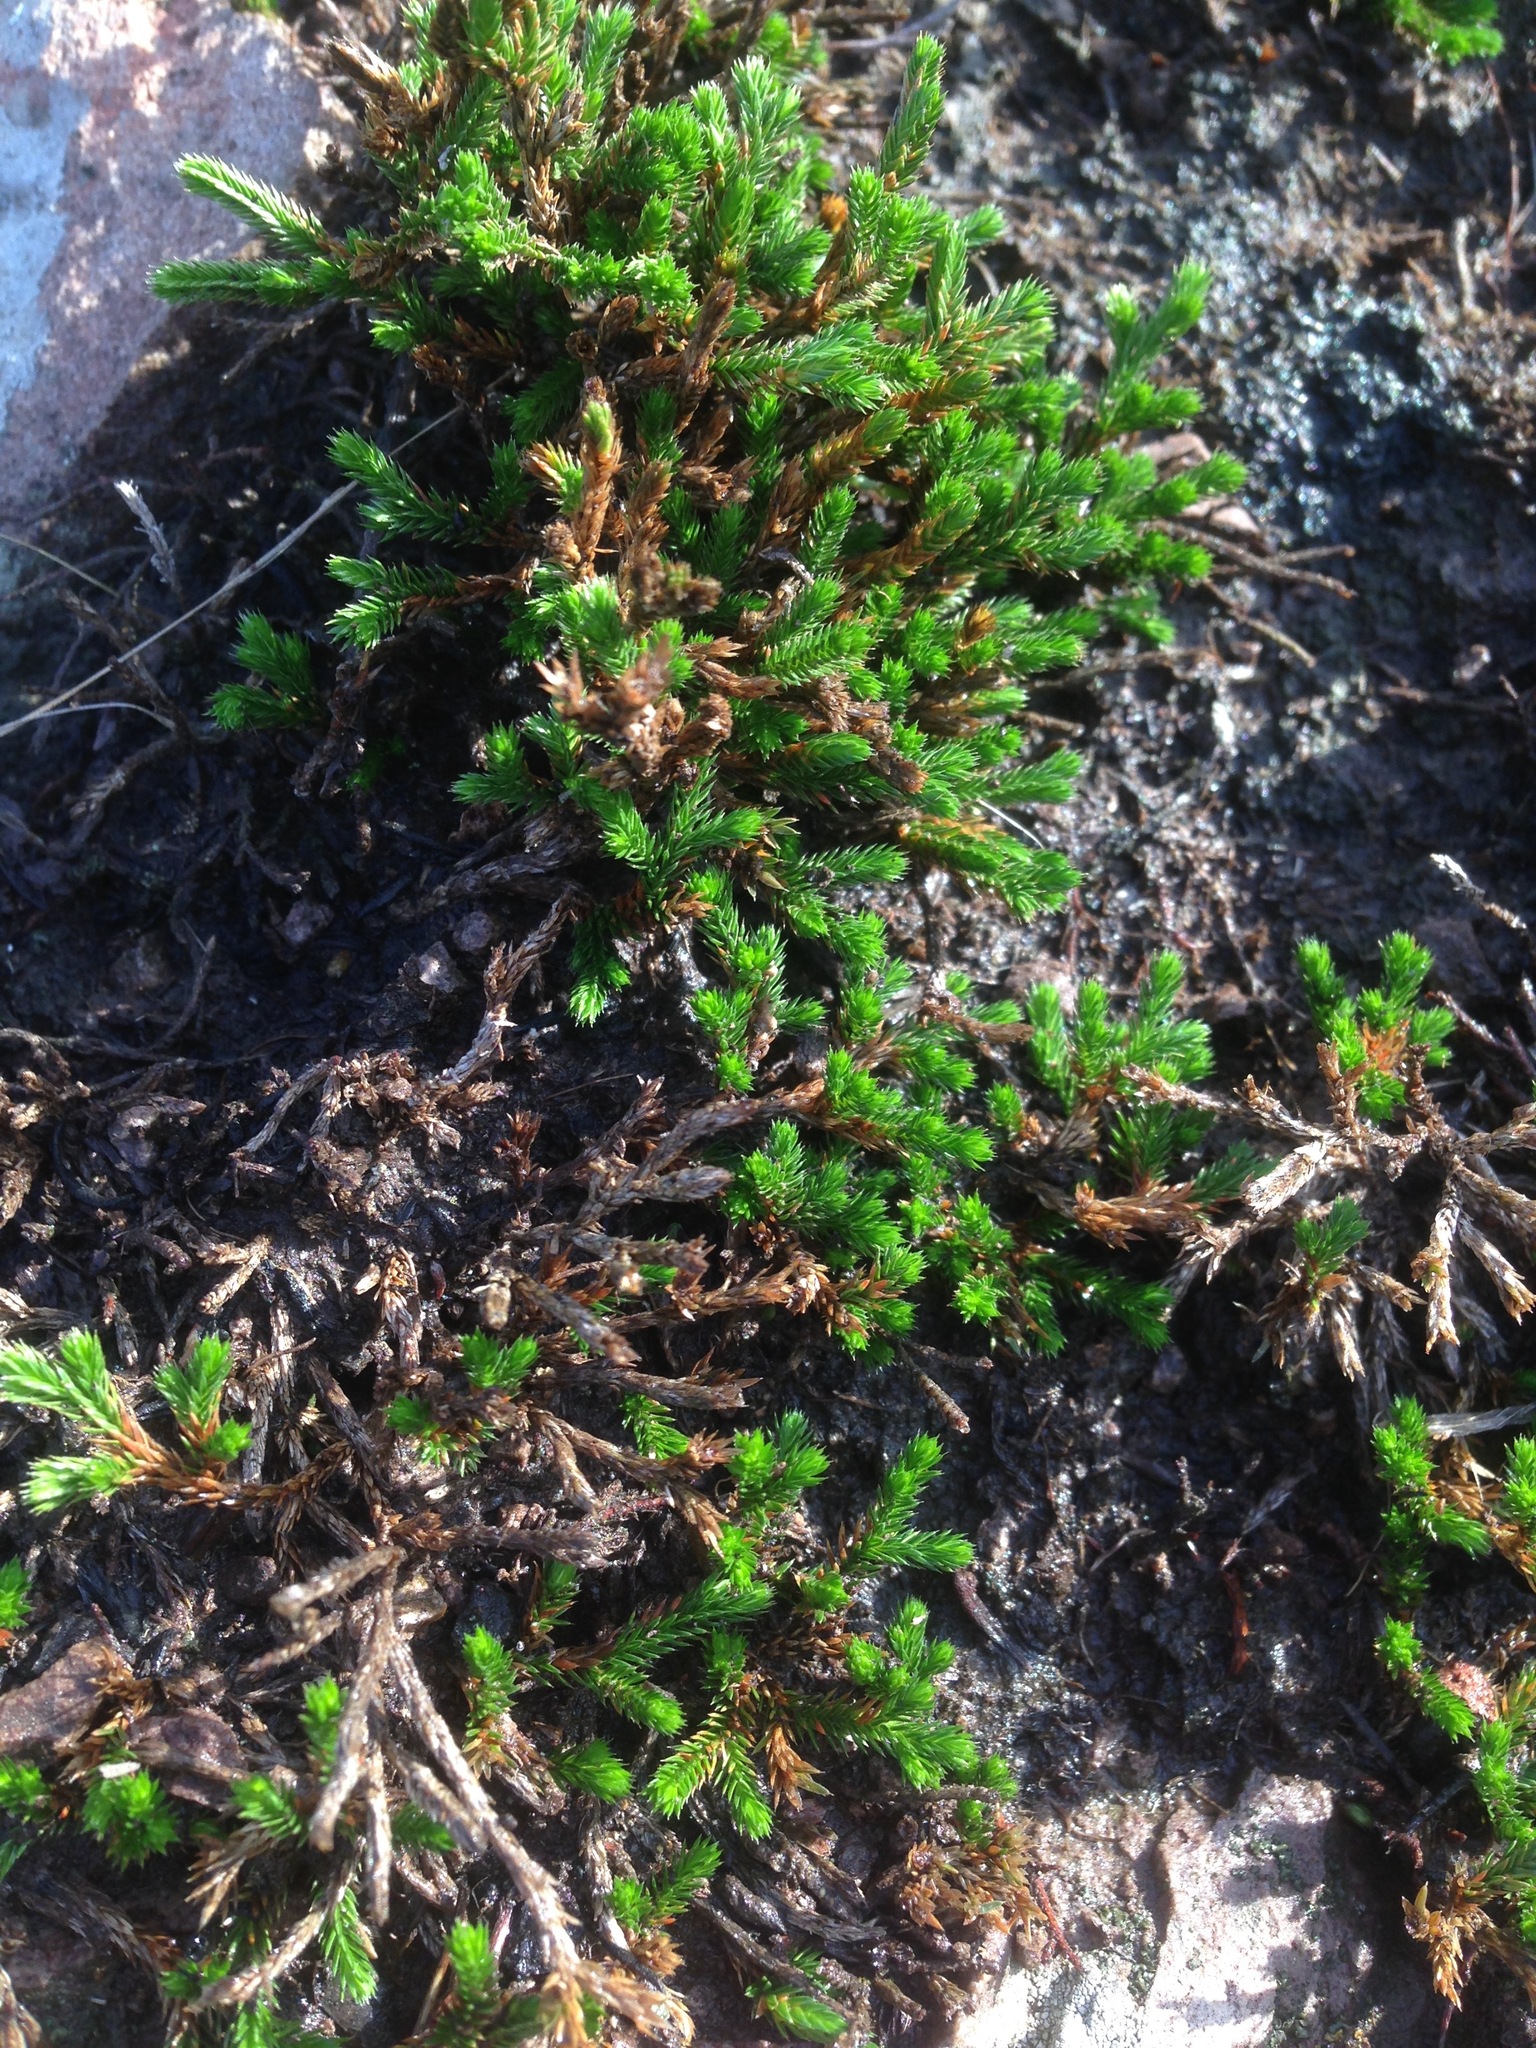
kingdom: Plantae
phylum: Tracheophyta
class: Lycopodiopsida
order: Selaginellales
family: Selaginellaceae
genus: Selaginella
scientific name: Selaginella bigelovii
